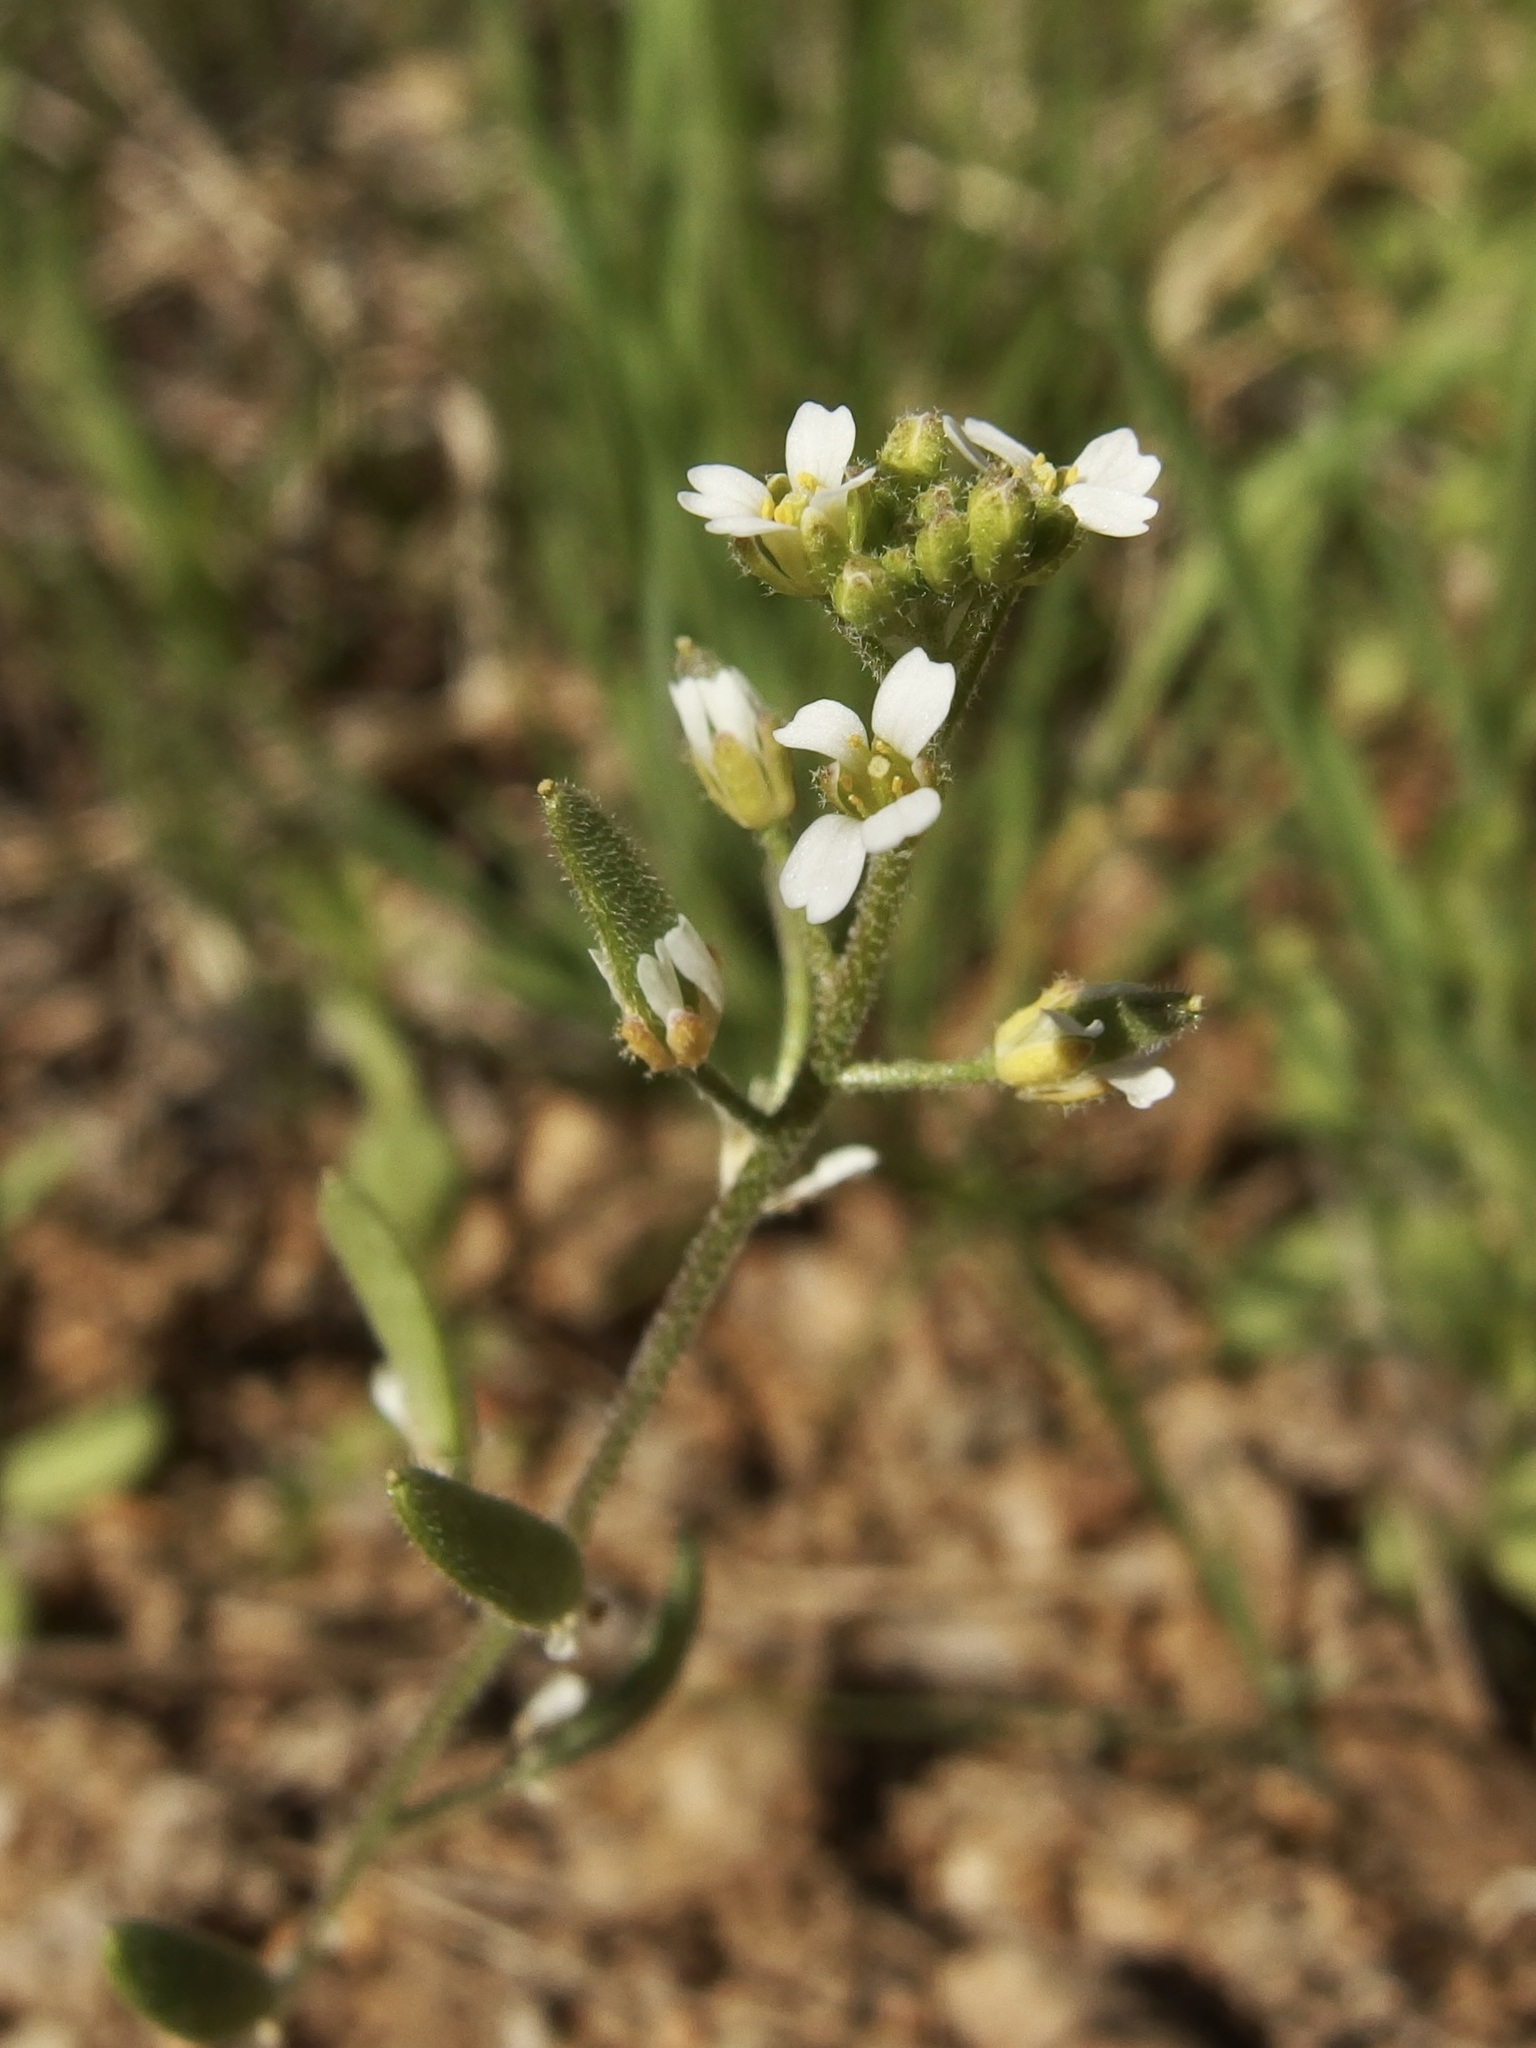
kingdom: Plantae
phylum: Tracheophyta
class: Magnoliopsida
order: Brassicales
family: Brassicaceae
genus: Tomostima
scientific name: Tomostima cuneifolia
